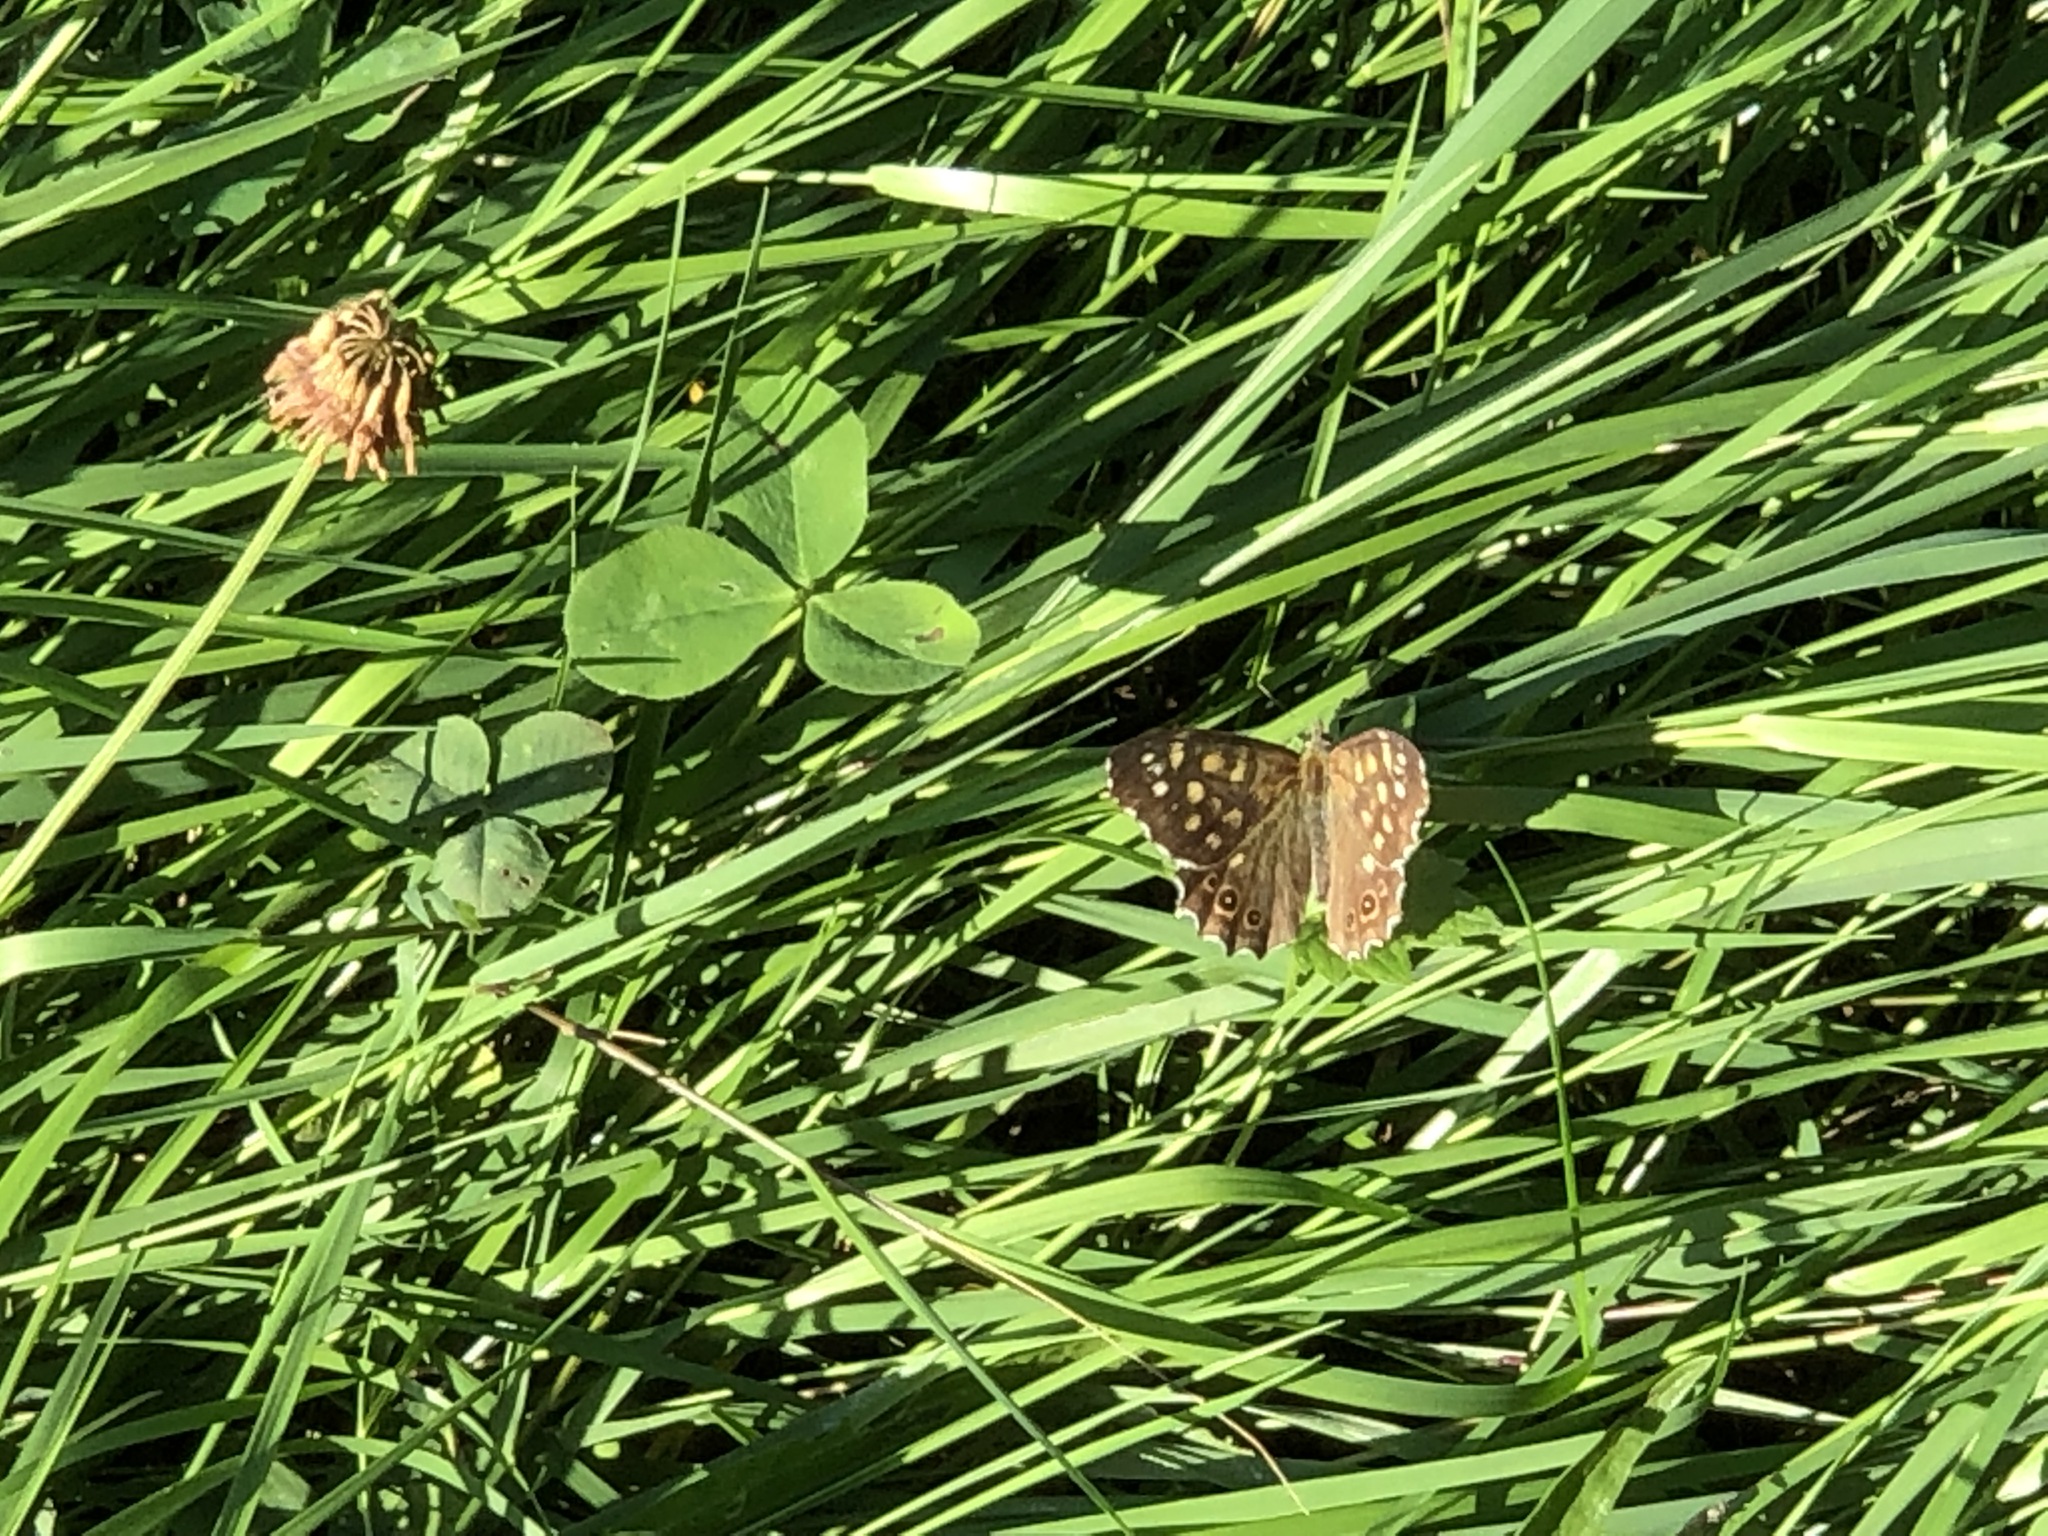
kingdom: Animalia
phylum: Arthropoda
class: Insecta
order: Lepidoptera
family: Nymphalidae
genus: Pararge
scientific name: Pararge aegeria
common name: Speckled wood
